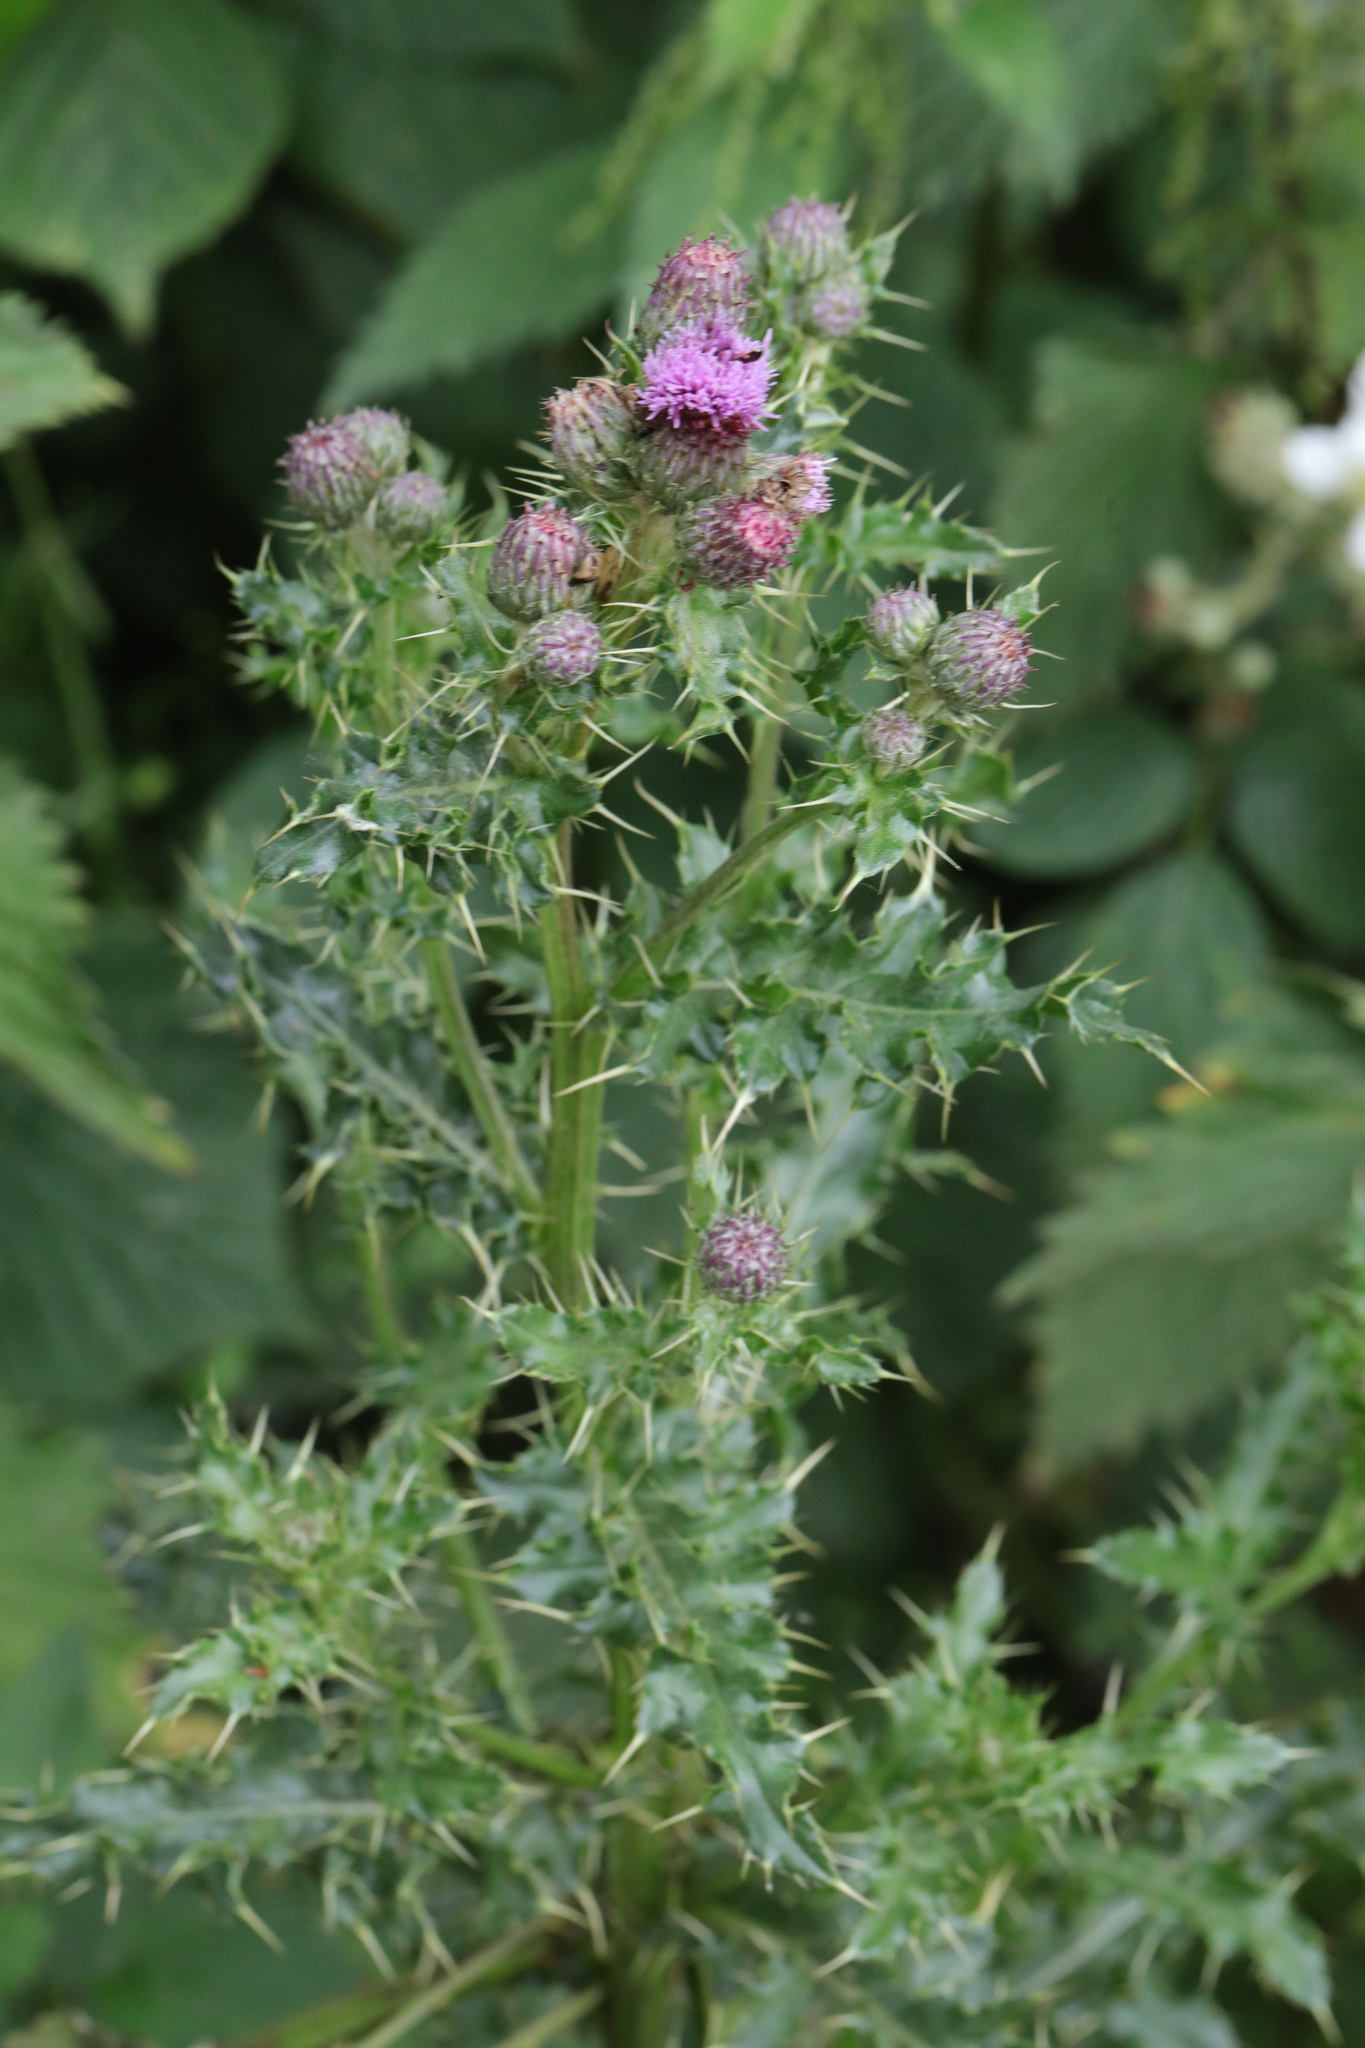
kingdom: Plantae
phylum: Tracheophyta
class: Magnoliopsida
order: Asterales
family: Asteraceae
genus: Cirsium
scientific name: Cirsium arvense
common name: Creeping thistle
